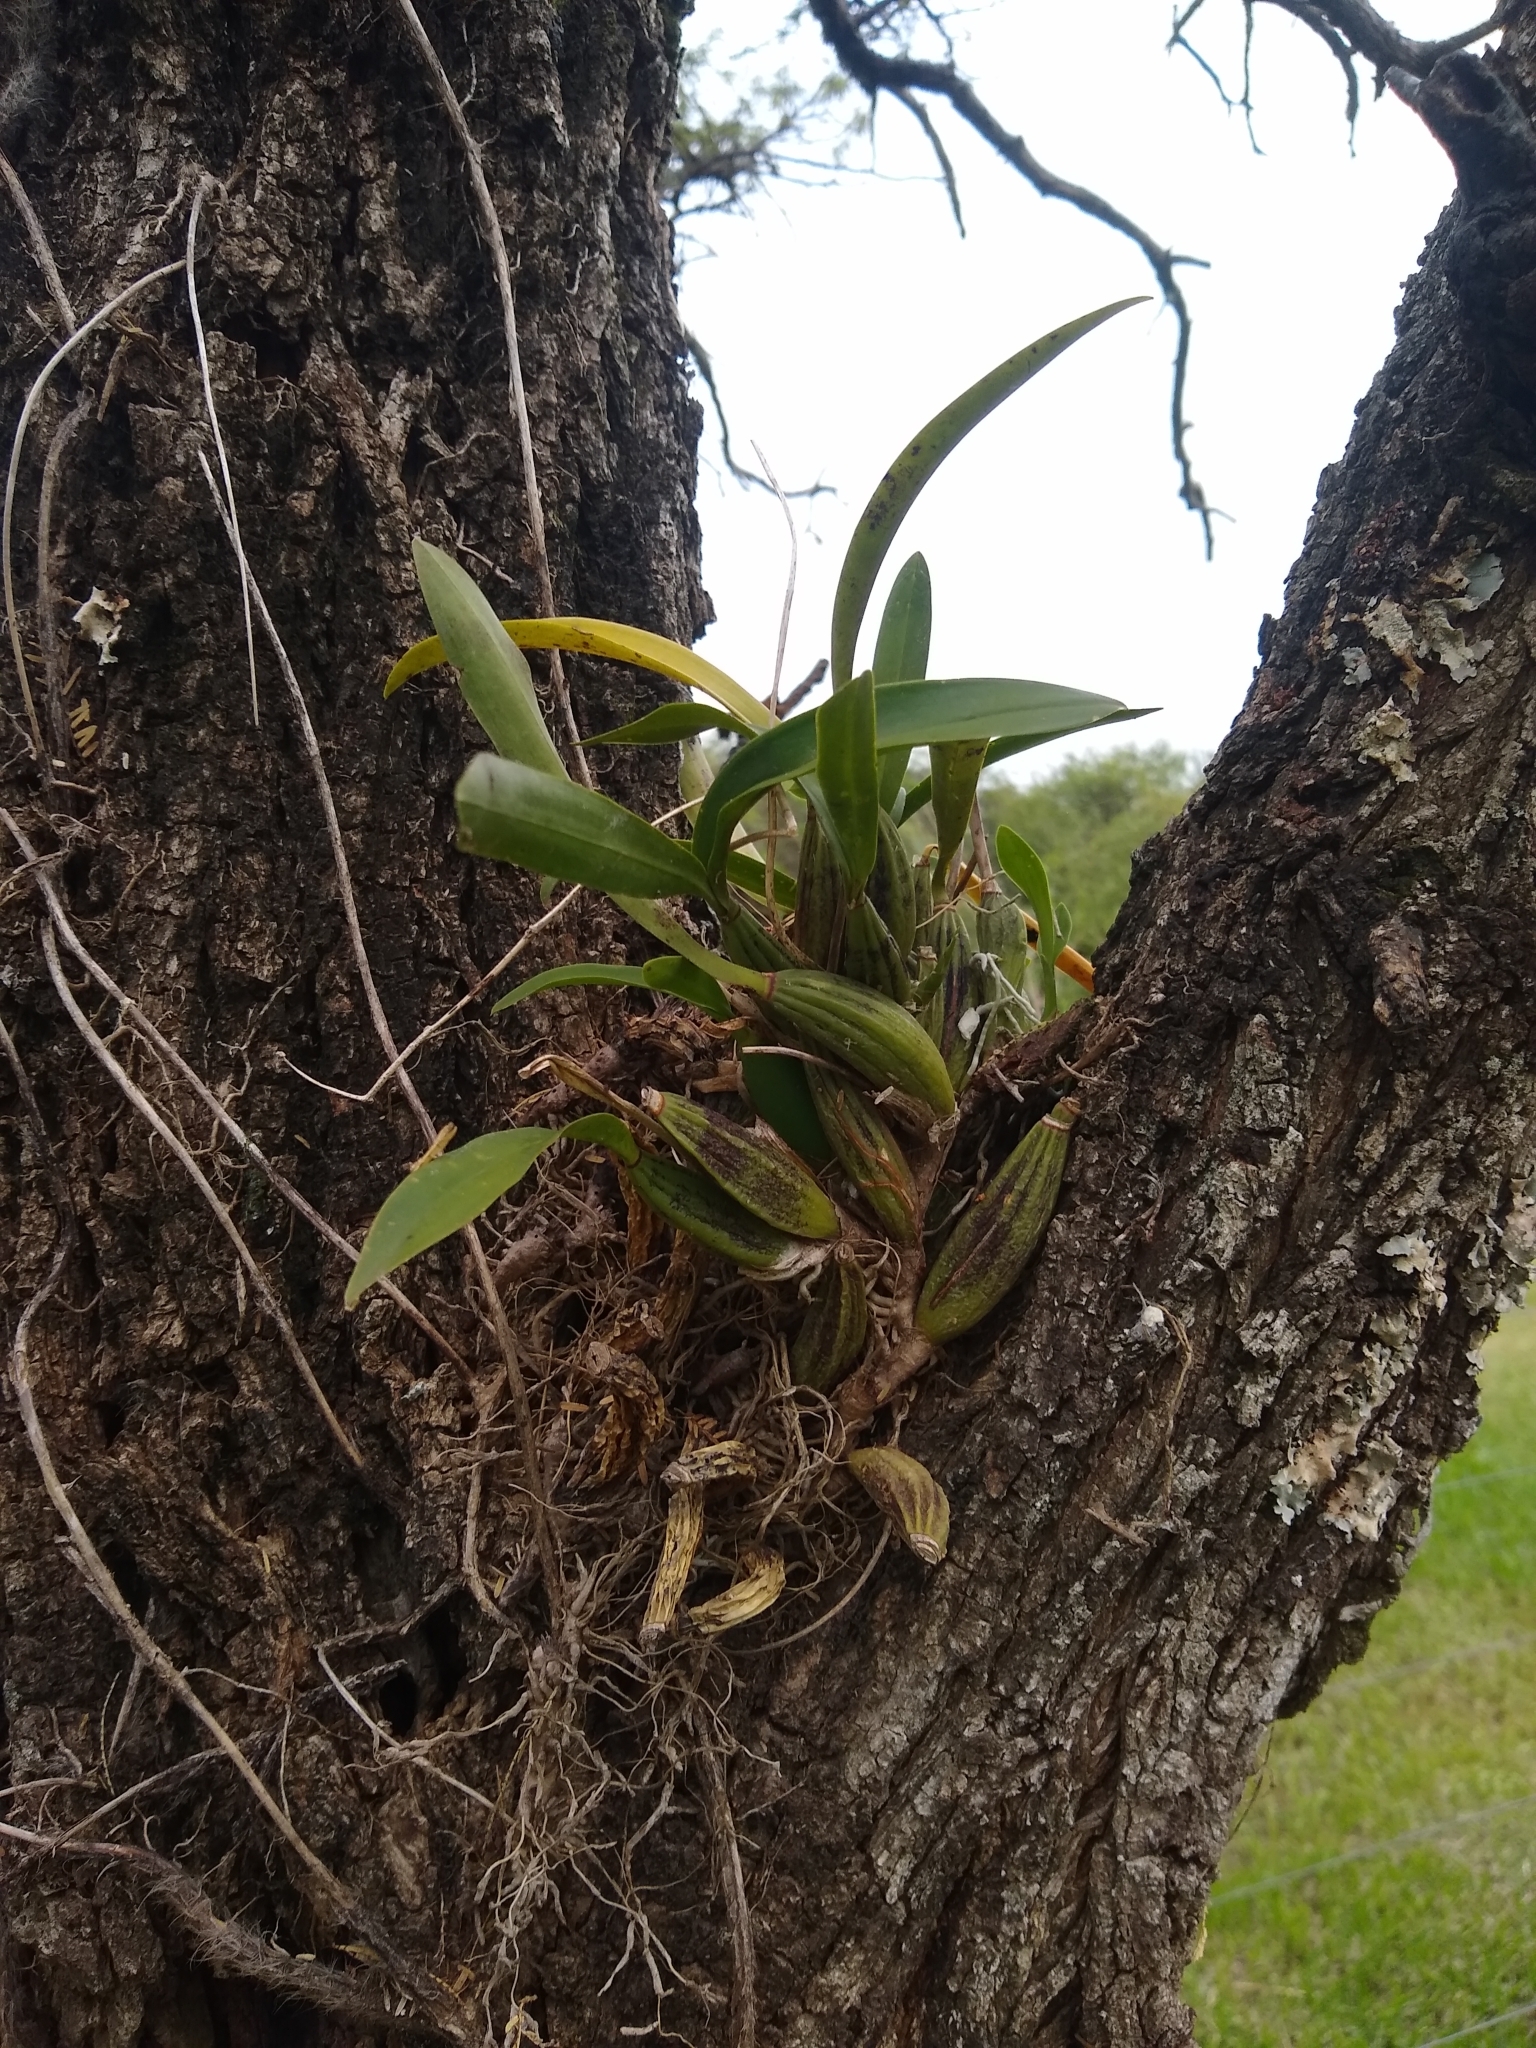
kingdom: Plantae
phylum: Tracheophyta
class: Liliopsida
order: Asparagales
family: Orchidaceae
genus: Gomesa
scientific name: Gomesa bifolia
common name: Dancing ladies
